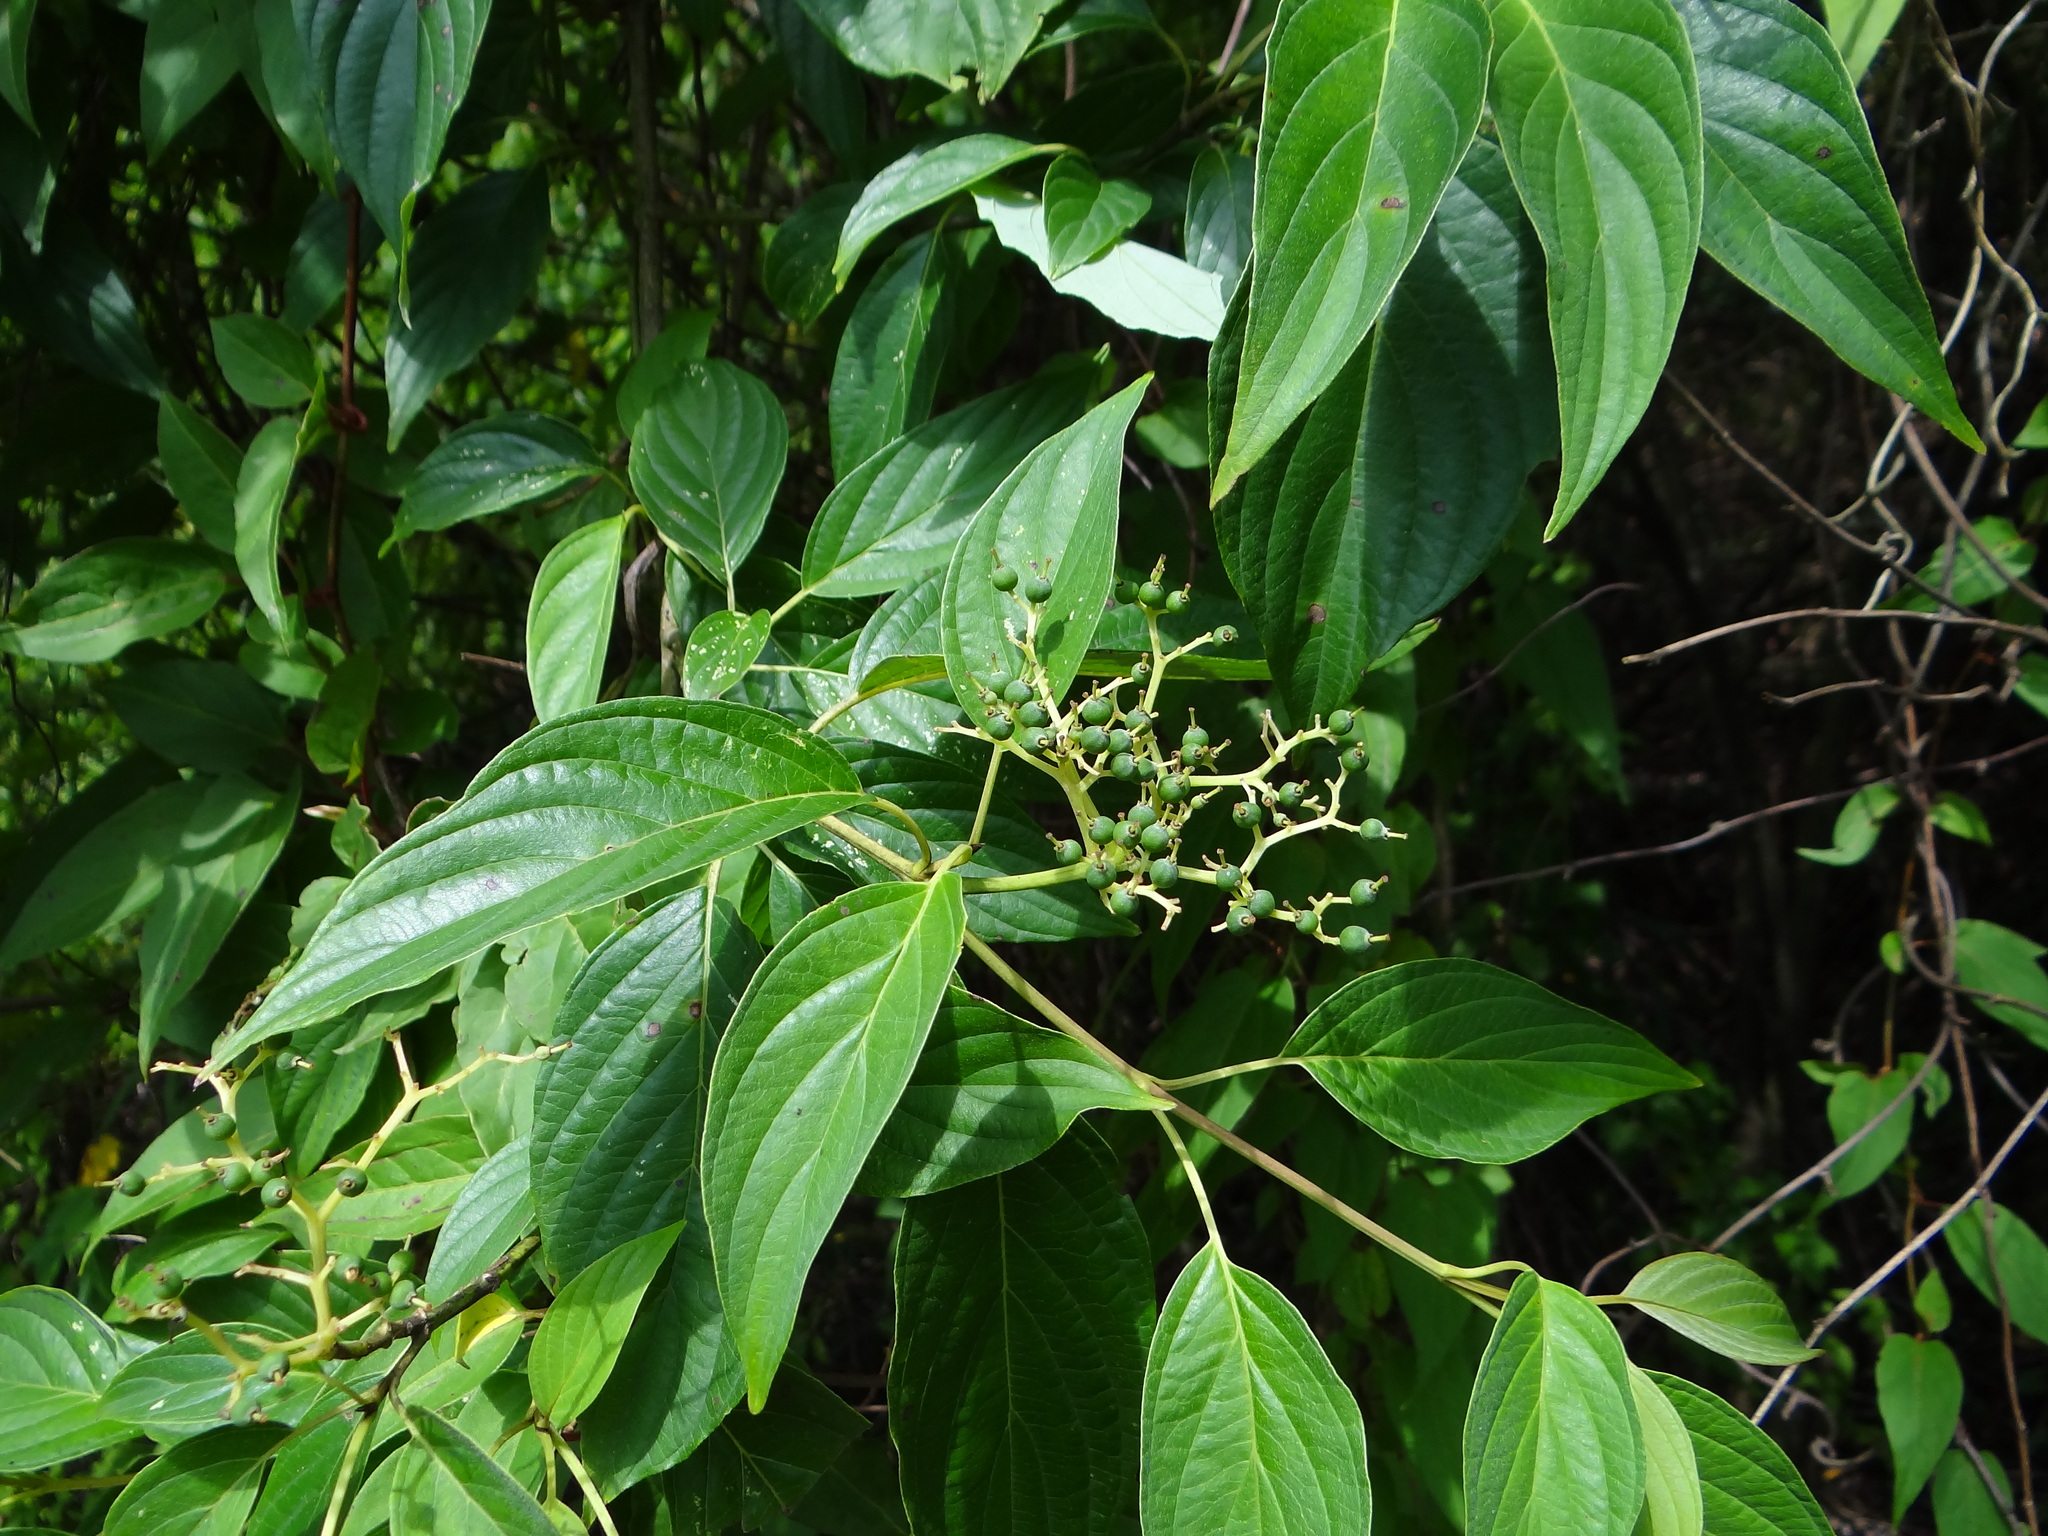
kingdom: Plantae
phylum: Tracheophyta
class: Magnoliopsida
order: Cornales
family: Cornaceae
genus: Cornus
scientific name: Cornus macrophylla
